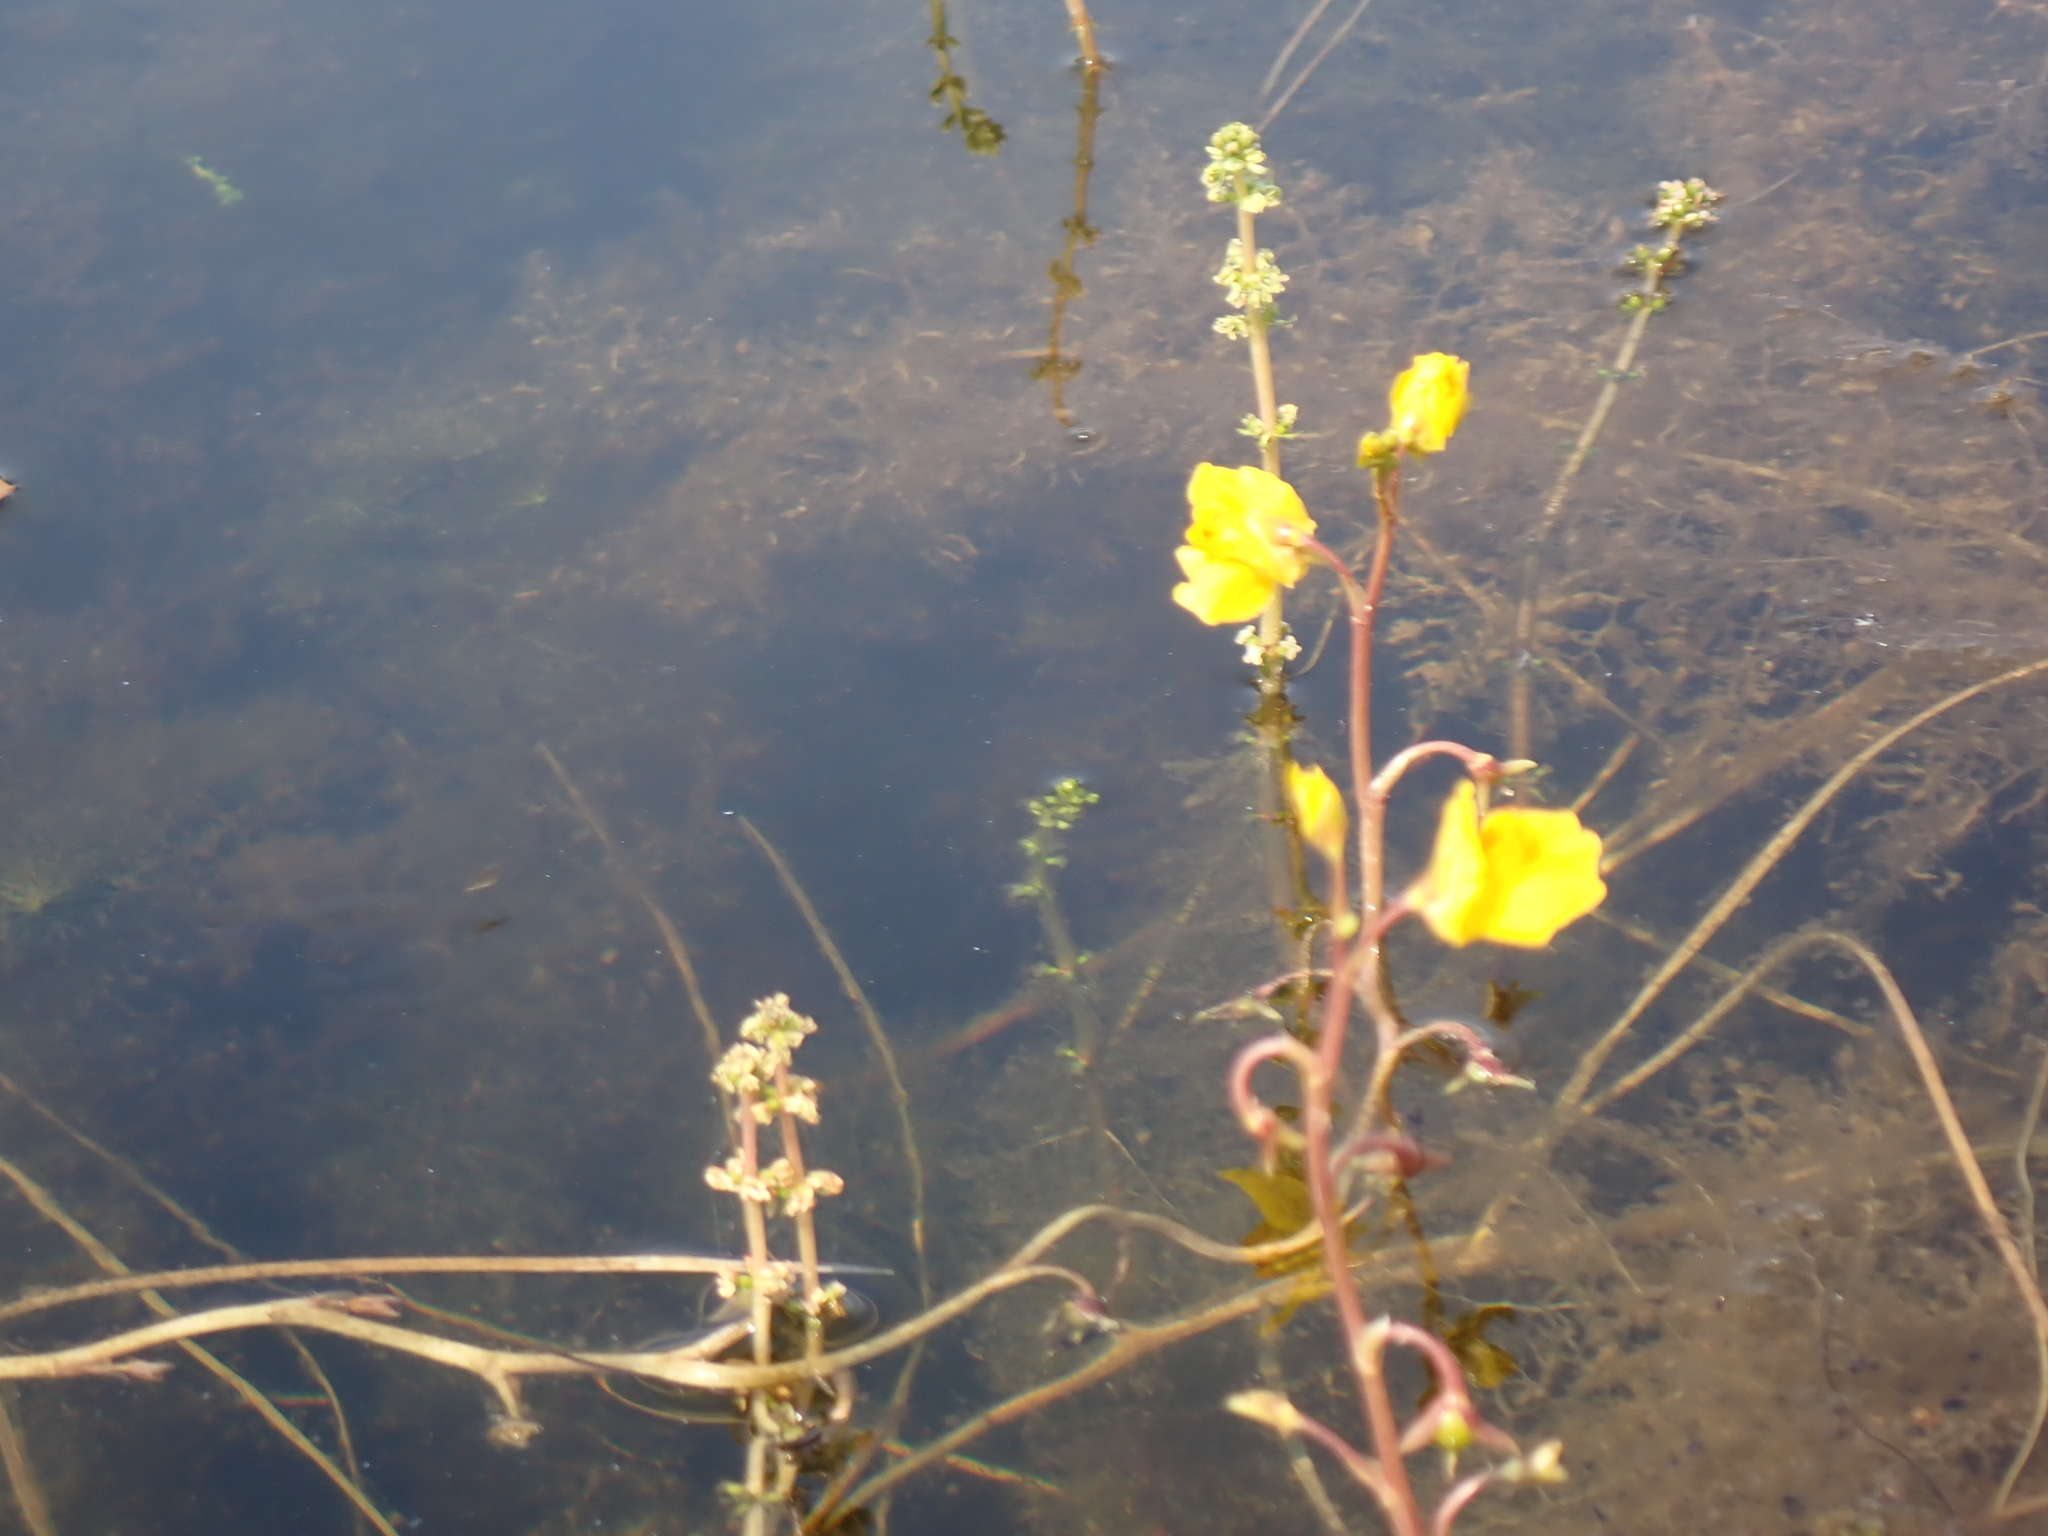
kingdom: Plantae
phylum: Tracheophyta
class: Magnoliopsida
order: Lamiales
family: Lentibulariaceae
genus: Utricularia
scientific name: Utricularia macrorhiza
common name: Common bladderwort
